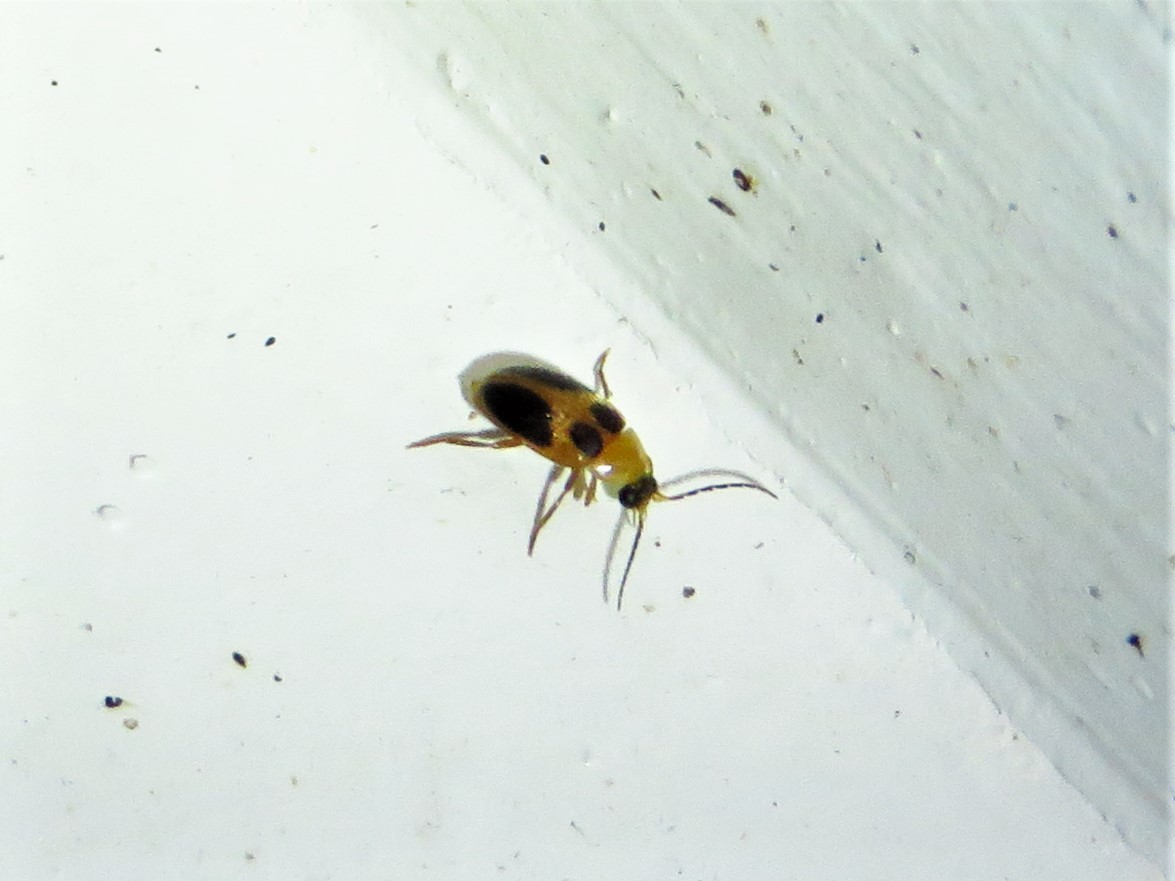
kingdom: Animalia
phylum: Arthropoda
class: Insecta
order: Coleoptera
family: Scirtidae
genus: Sacodes
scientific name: Sacodes pulchella
